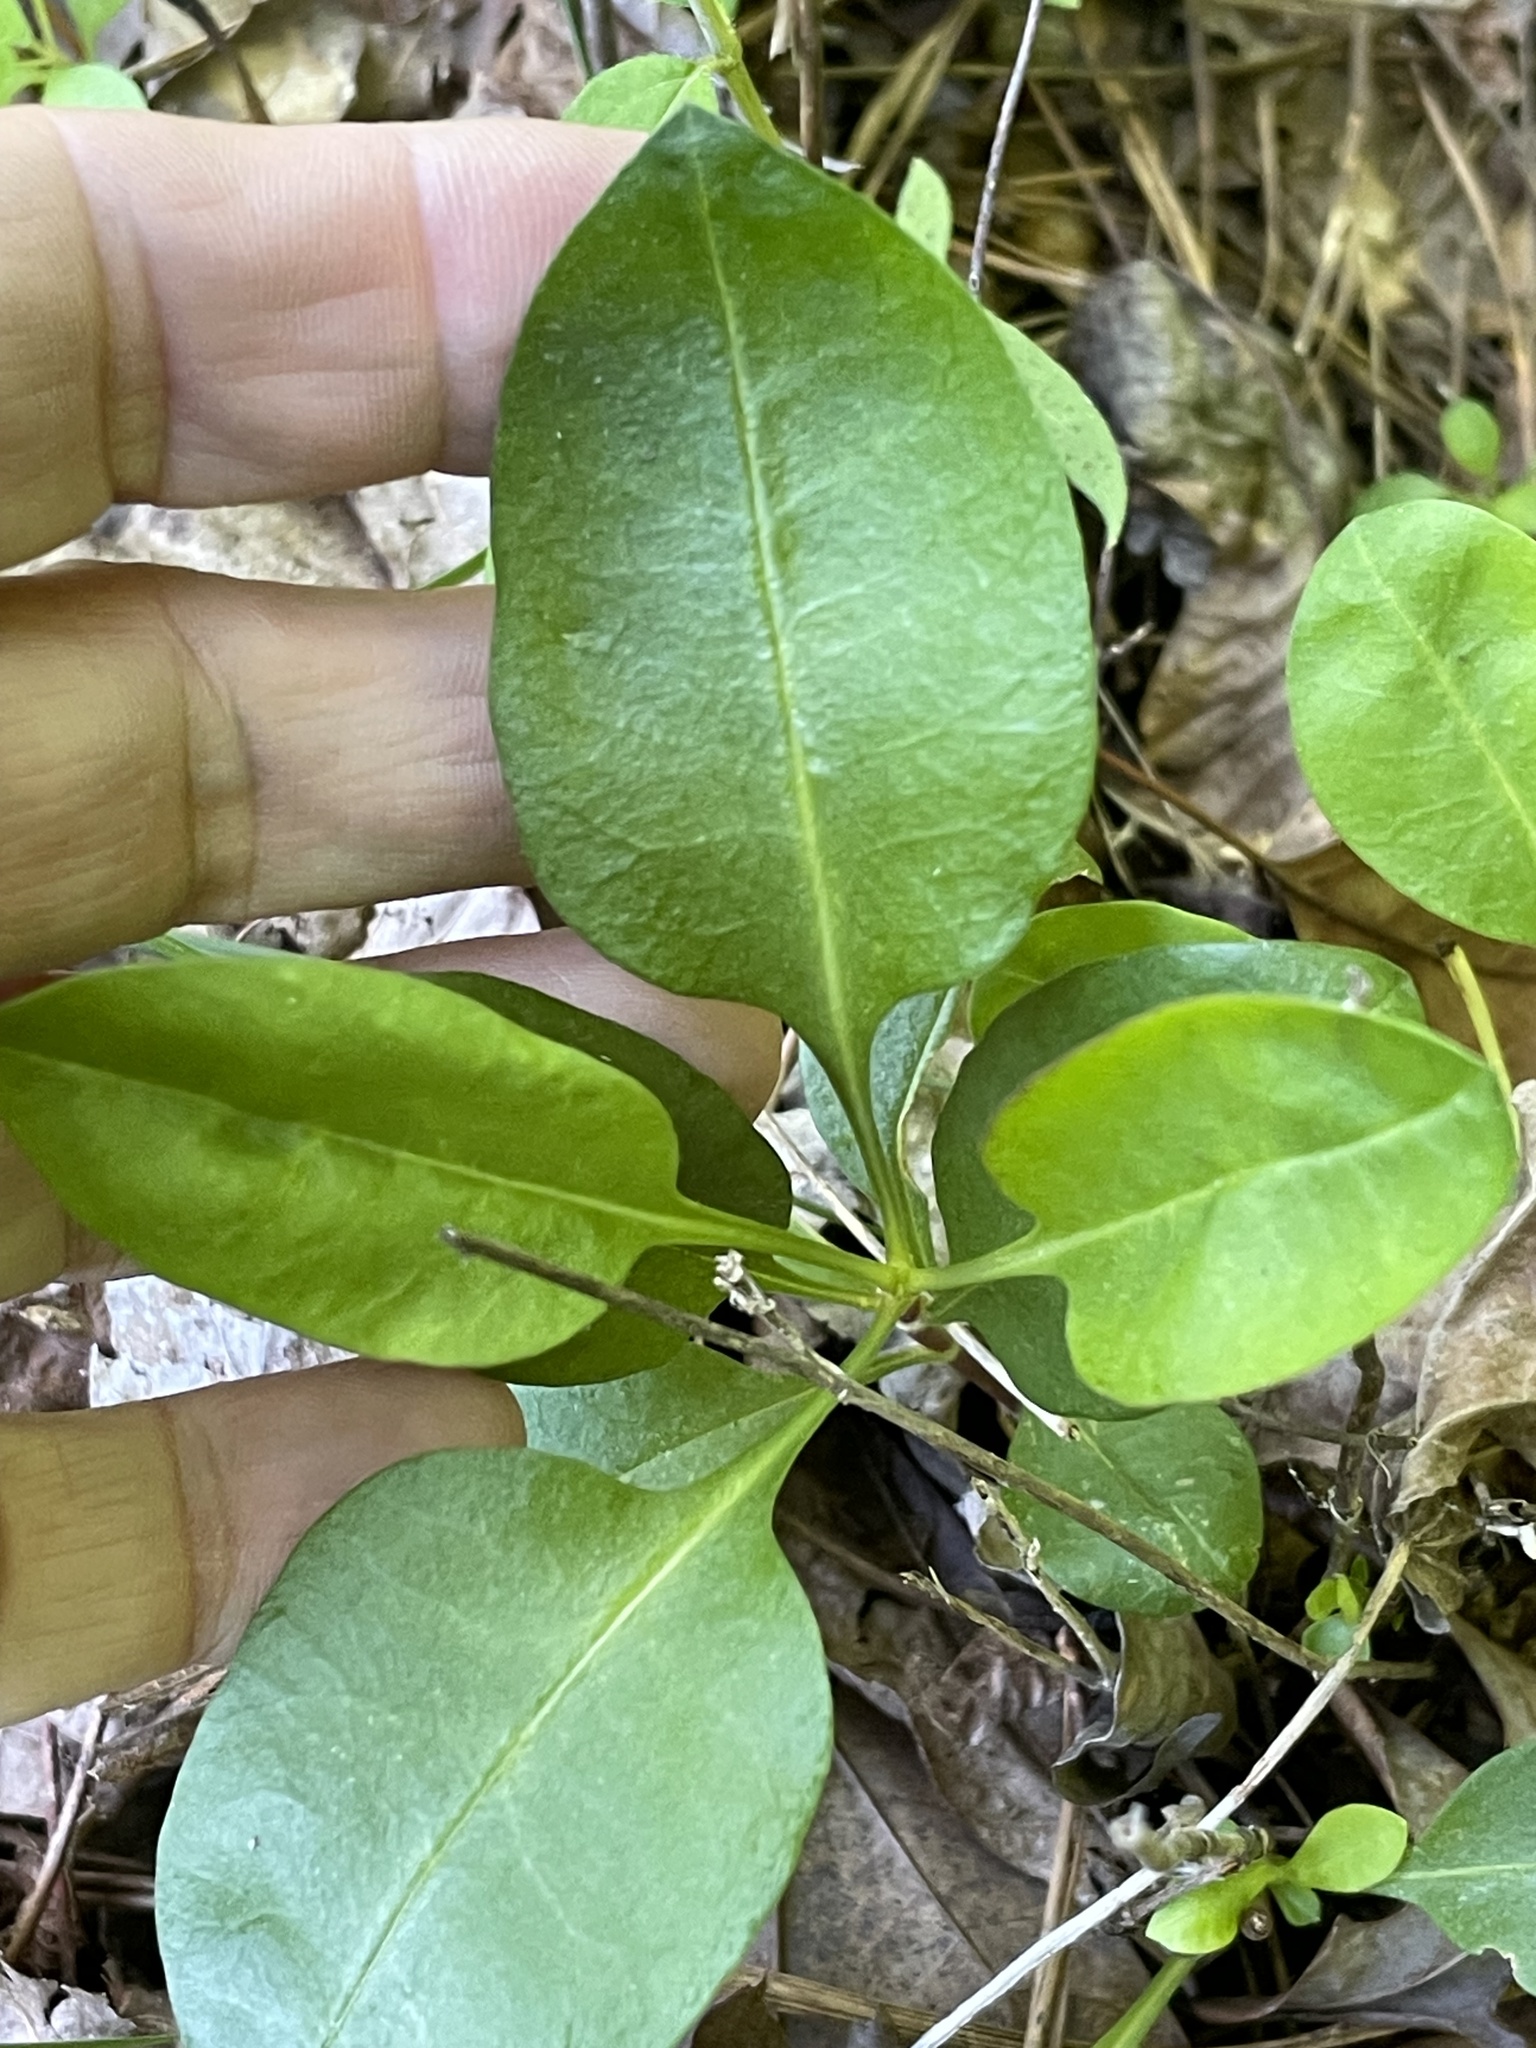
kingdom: Plantae
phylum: Tracheophyta
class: Magnoliopsida
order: Ericales
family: Polemoniaceae
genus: Phlox
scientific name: Phlox ovata
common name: Mountain phlox
